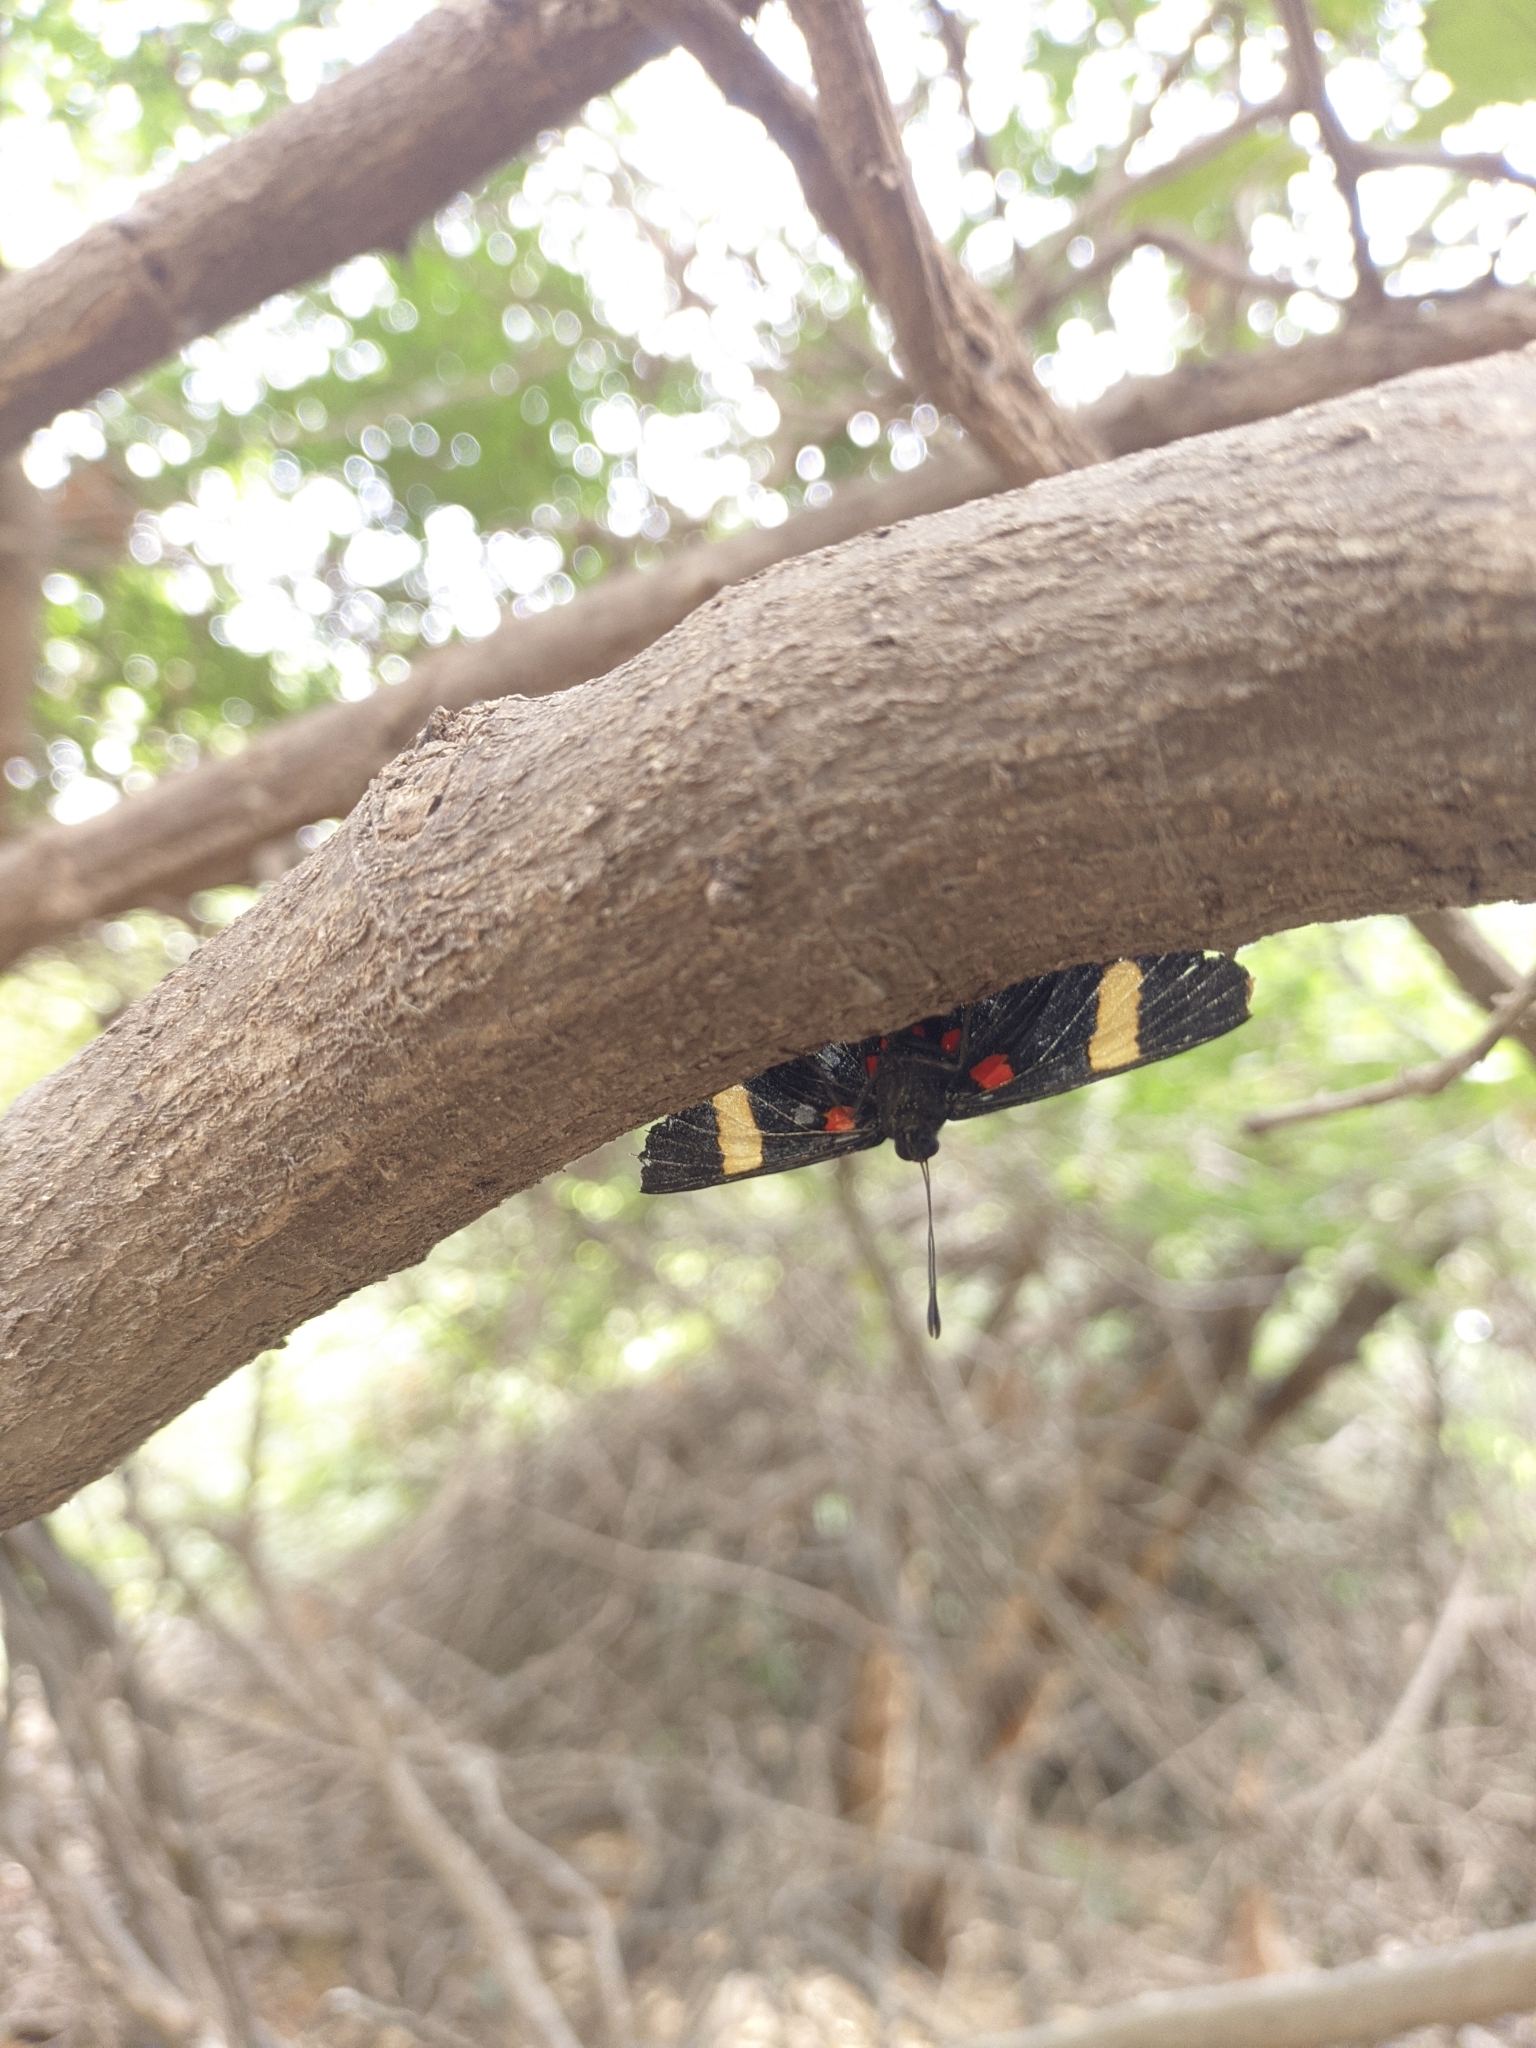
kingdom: Animalia
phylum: Arthropoda
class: Insecta
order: Lepidoptera
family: Lycaenidae
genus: Melanis
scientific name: Melanis electron
